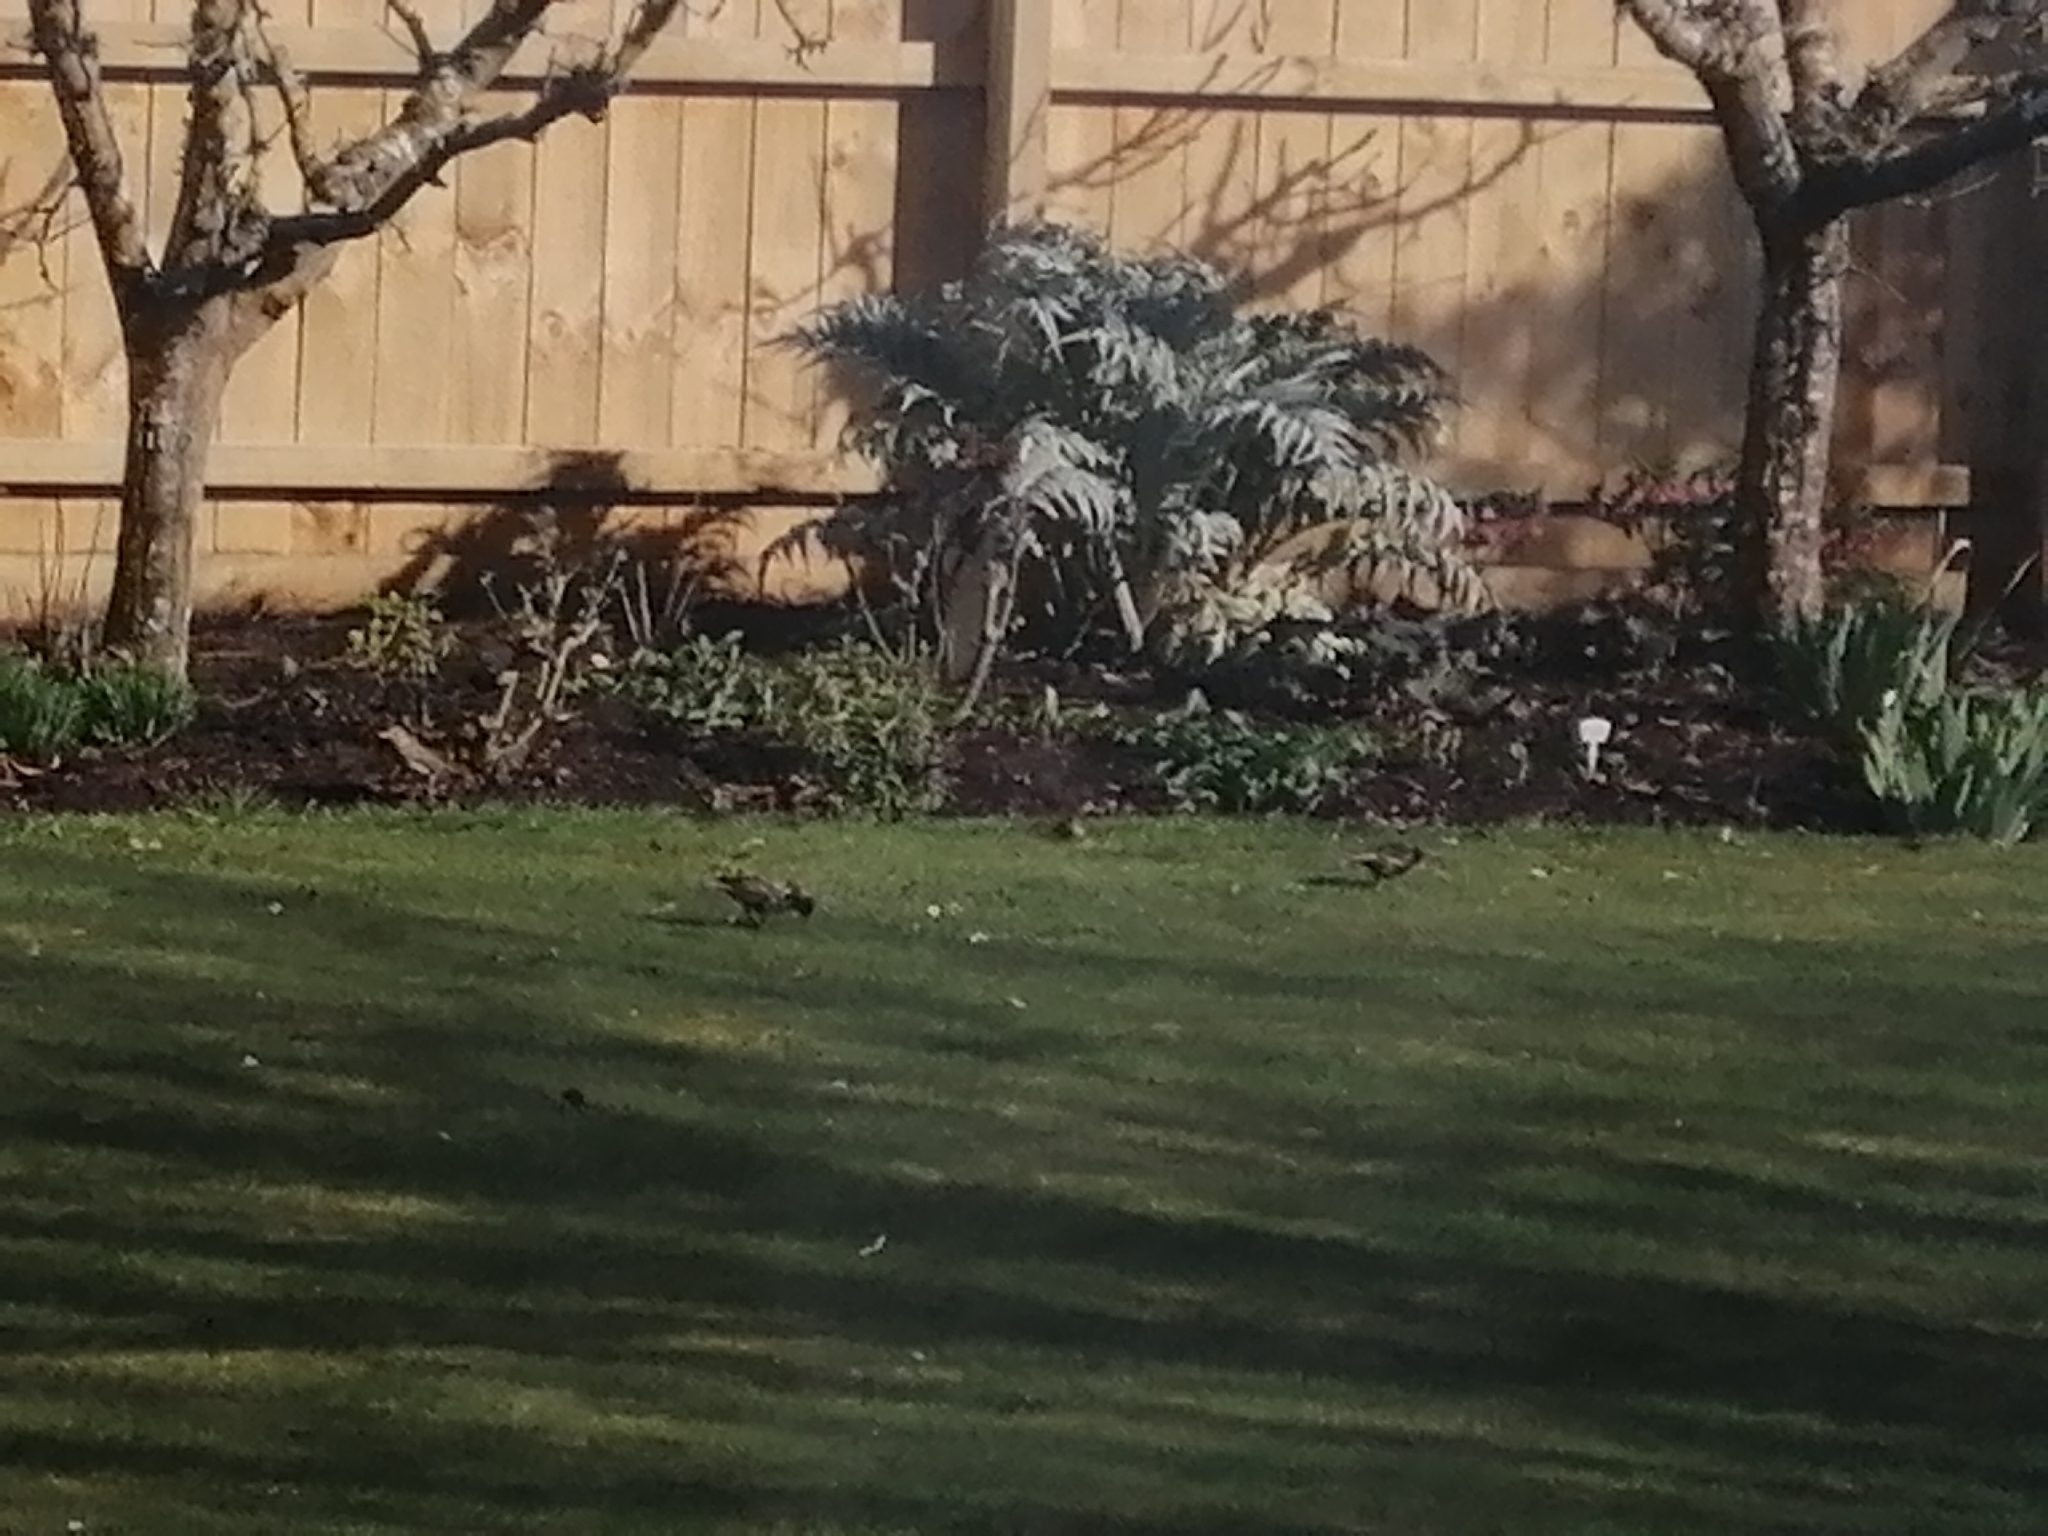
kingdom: Animalia
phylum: Chordata
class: Aves
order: Passeriformes
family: Sturnidae
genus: Sturnus
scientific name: Sturnus vulgaris
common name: Common starling
